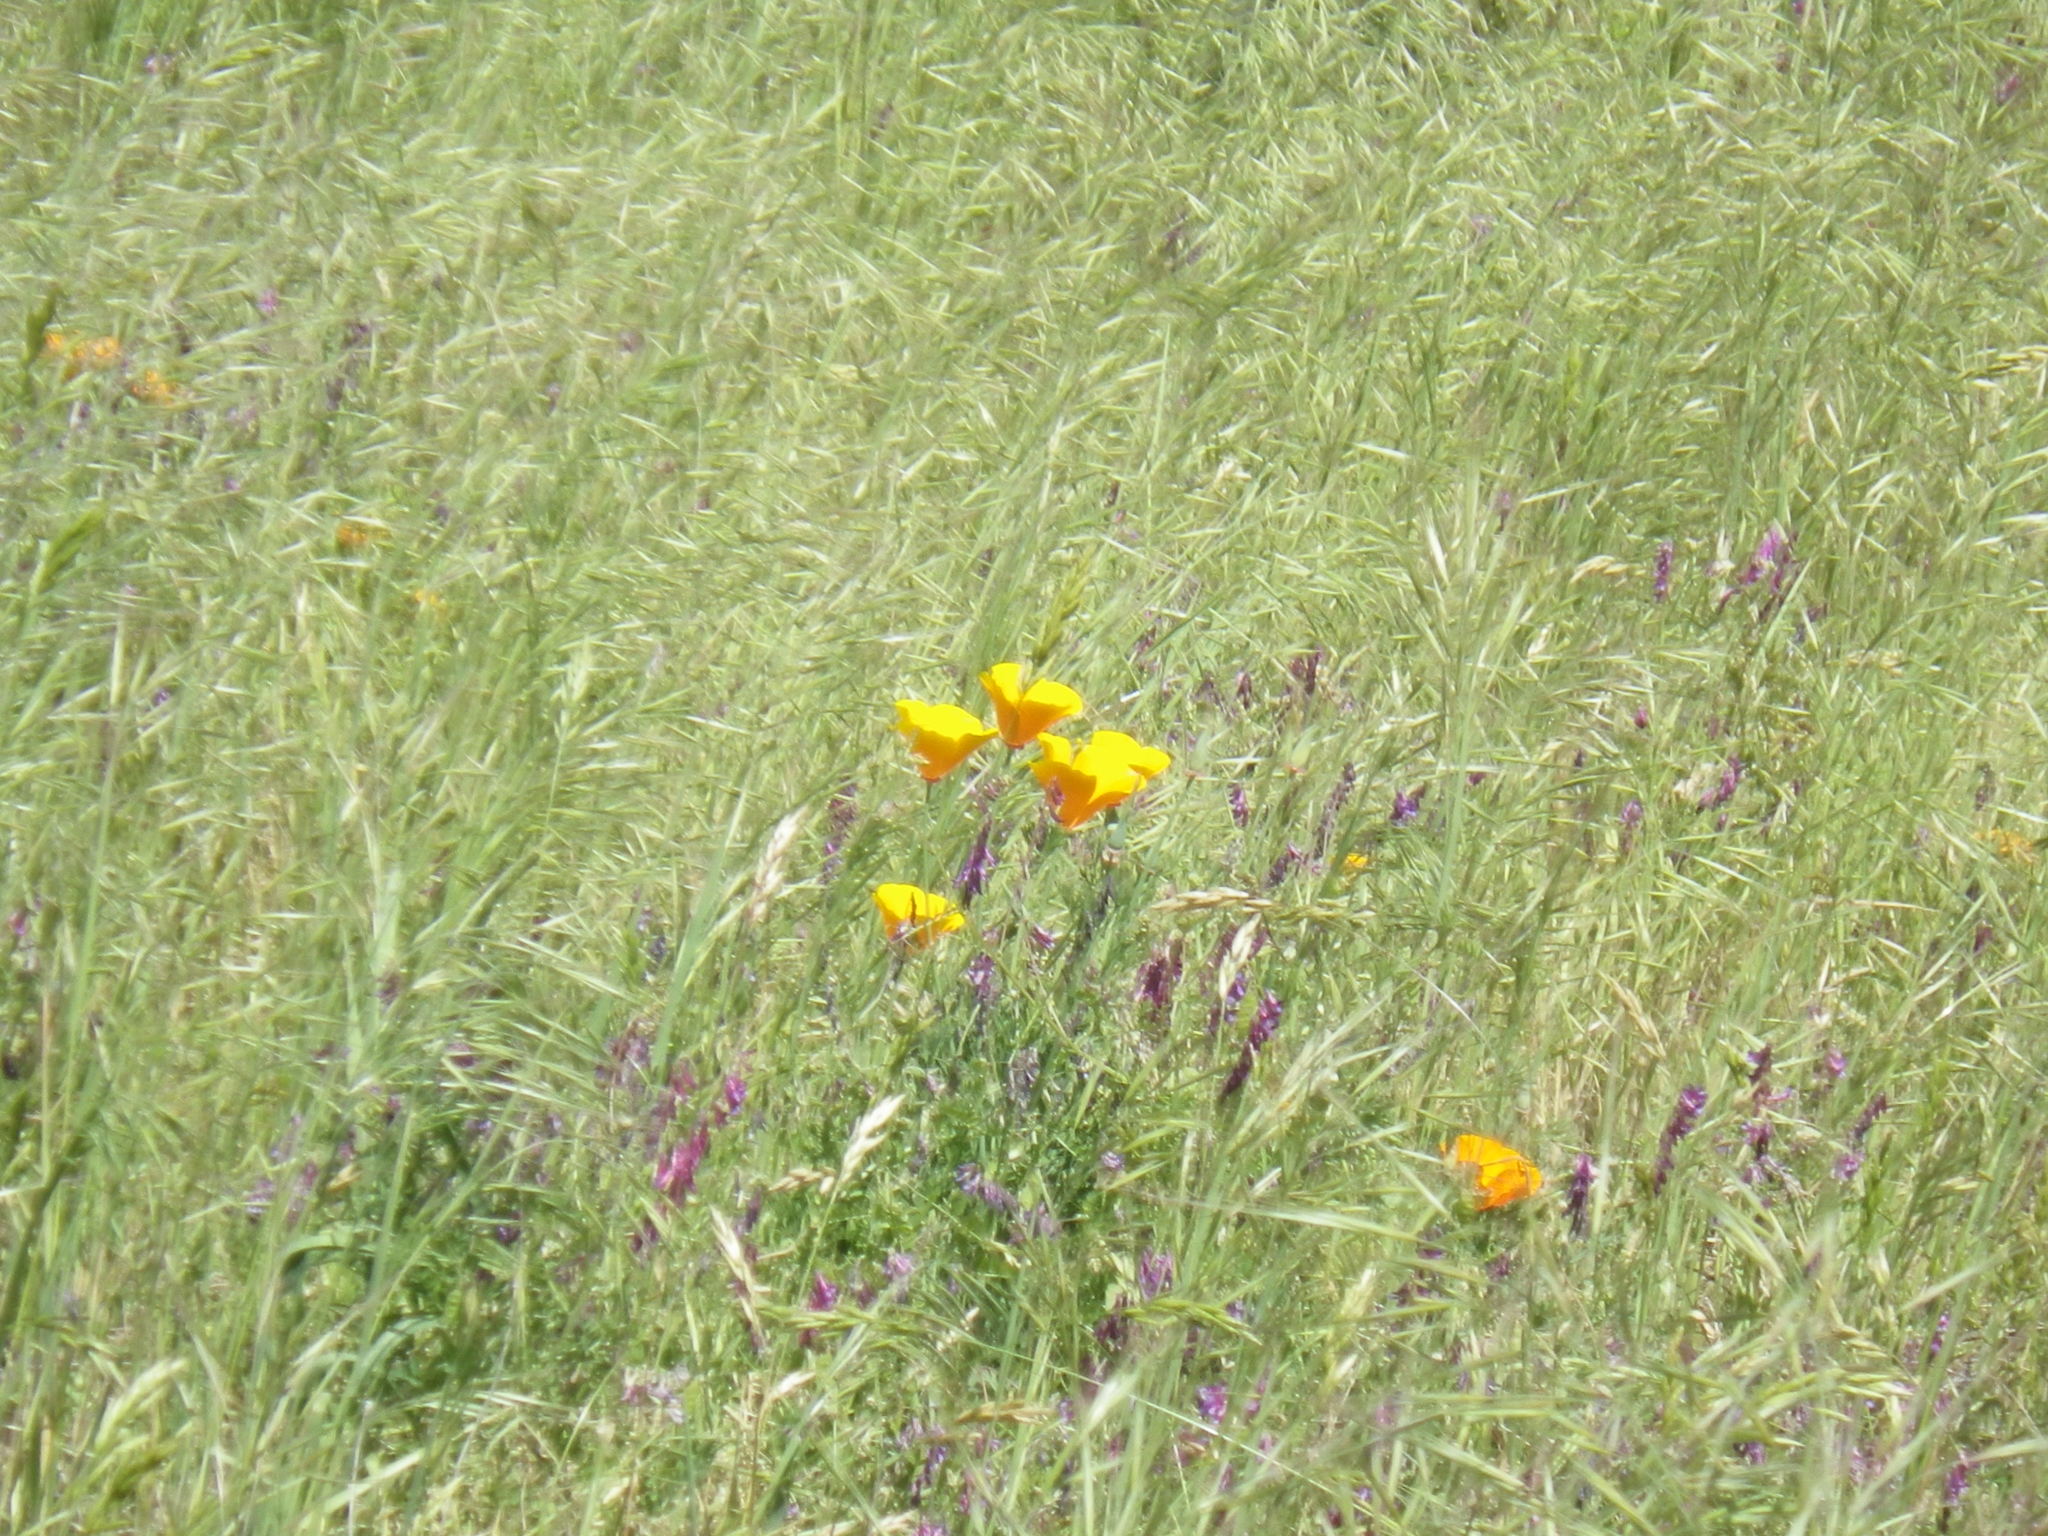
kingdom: Plantae
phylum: Tracheophyta
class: Magnoliopsida
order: Ranunculales
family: Papaveraceae
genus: Eschscholzia
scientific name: Eschscholzia californica
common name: California poppy
